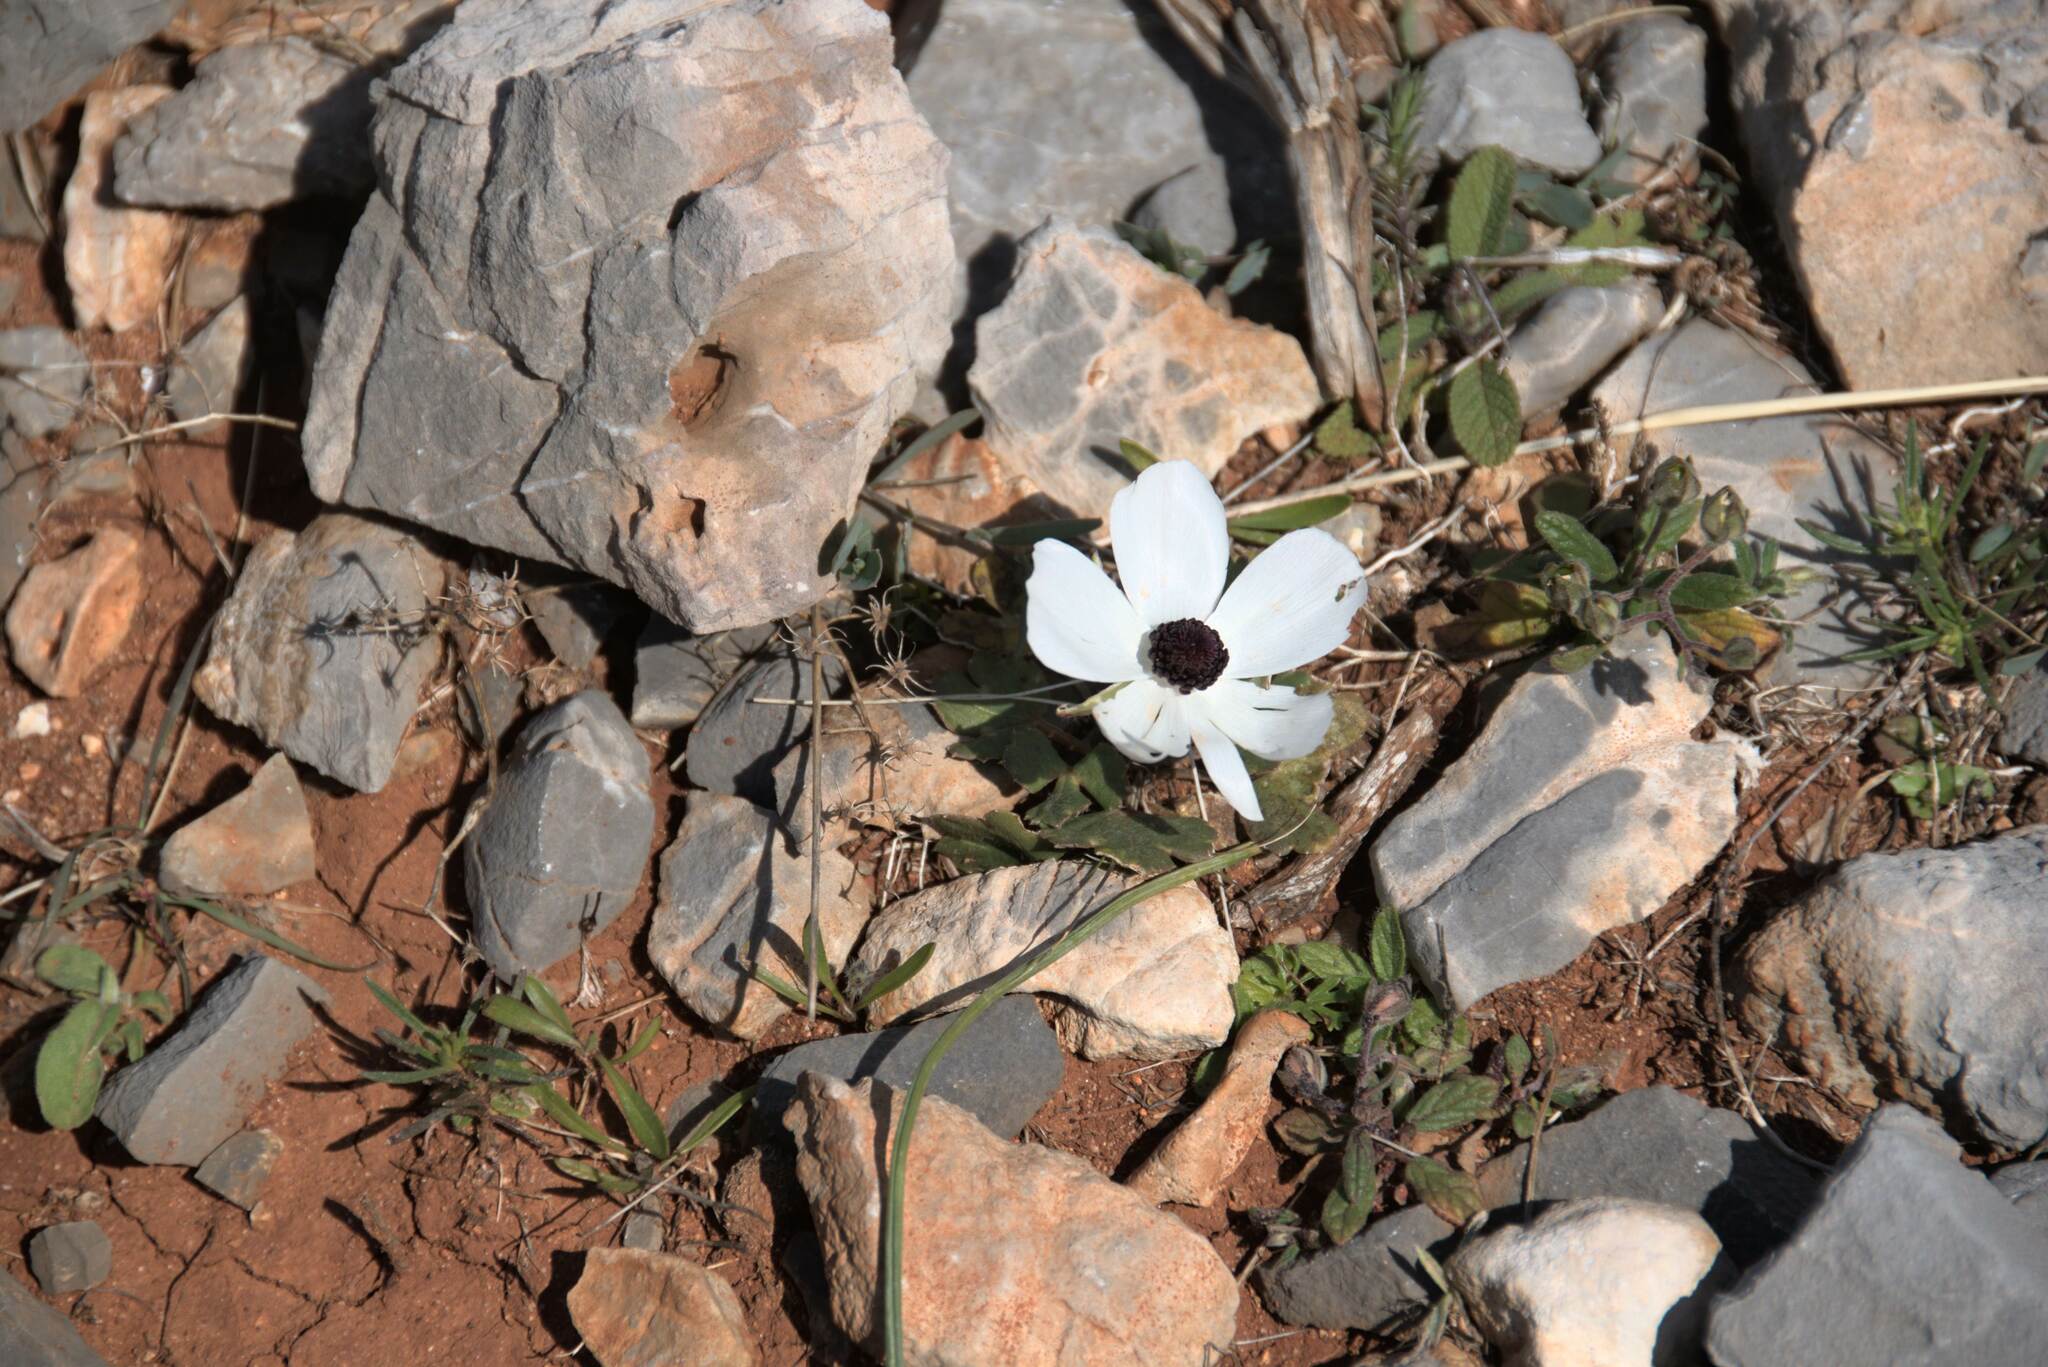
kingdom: Plantae
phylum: Tracheophyta
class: Magnoliopsida
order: Ranunculales
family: Ranunculaceae
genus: Anemone
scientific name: Anemone coronaria
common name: Poppy anemone
